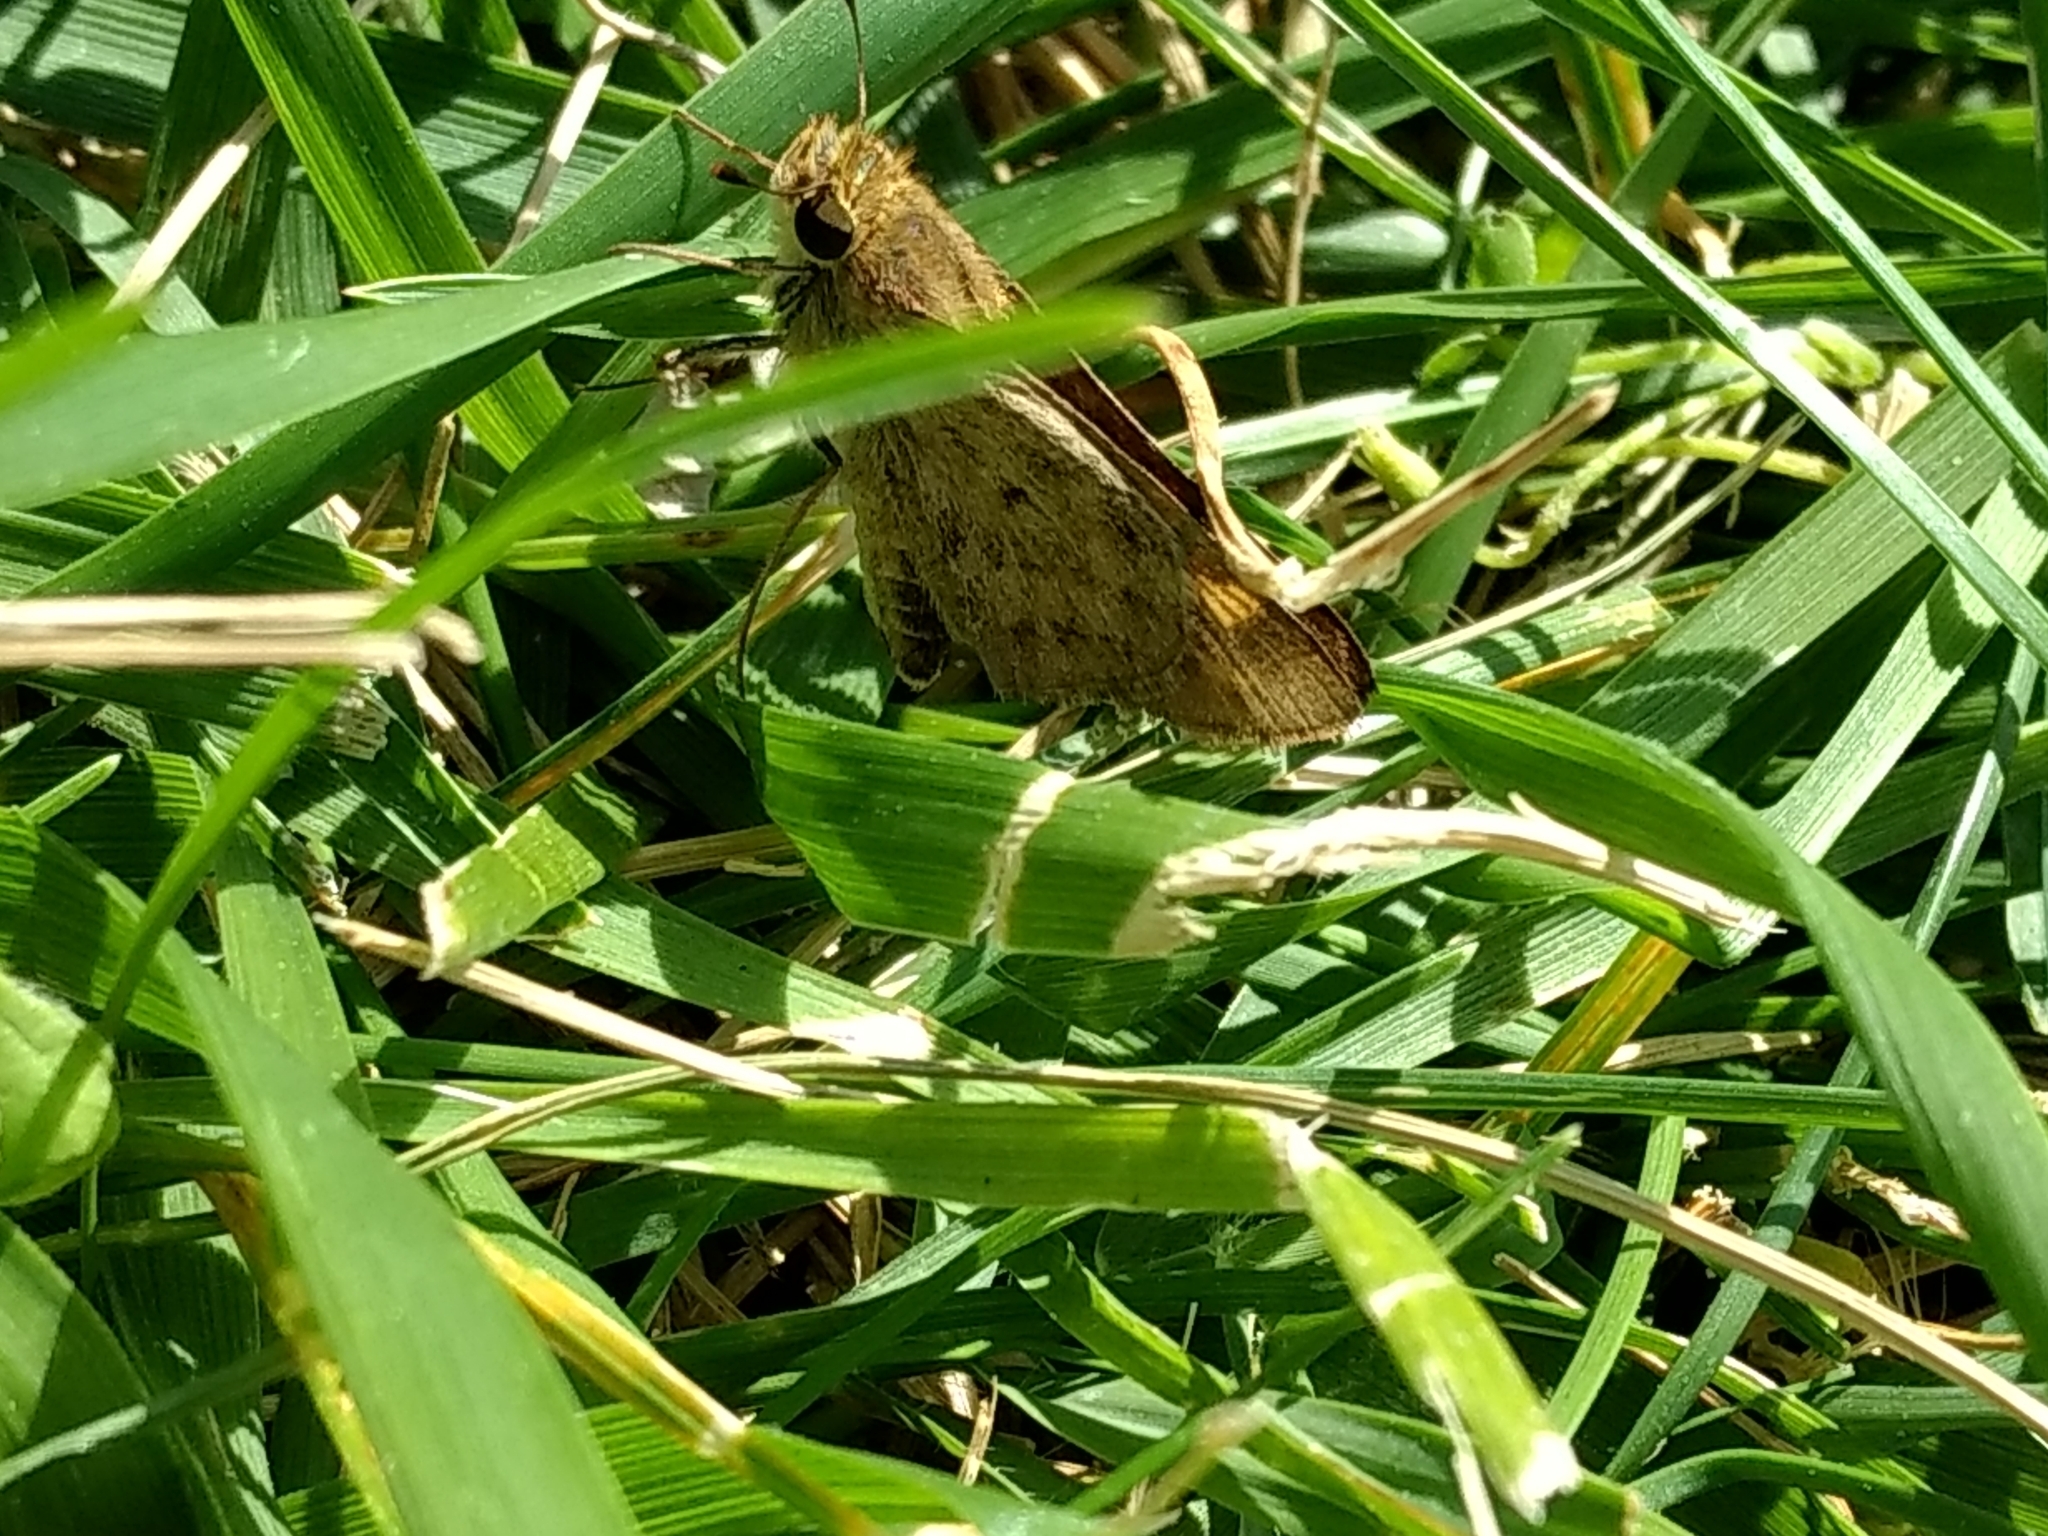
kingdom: Animalia
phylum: Arthropoda
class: Insecta
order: Lepidoptera
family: Hesperiidae
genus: Hylephila
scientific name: Hylephila phyleus
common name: Fiery skipper
